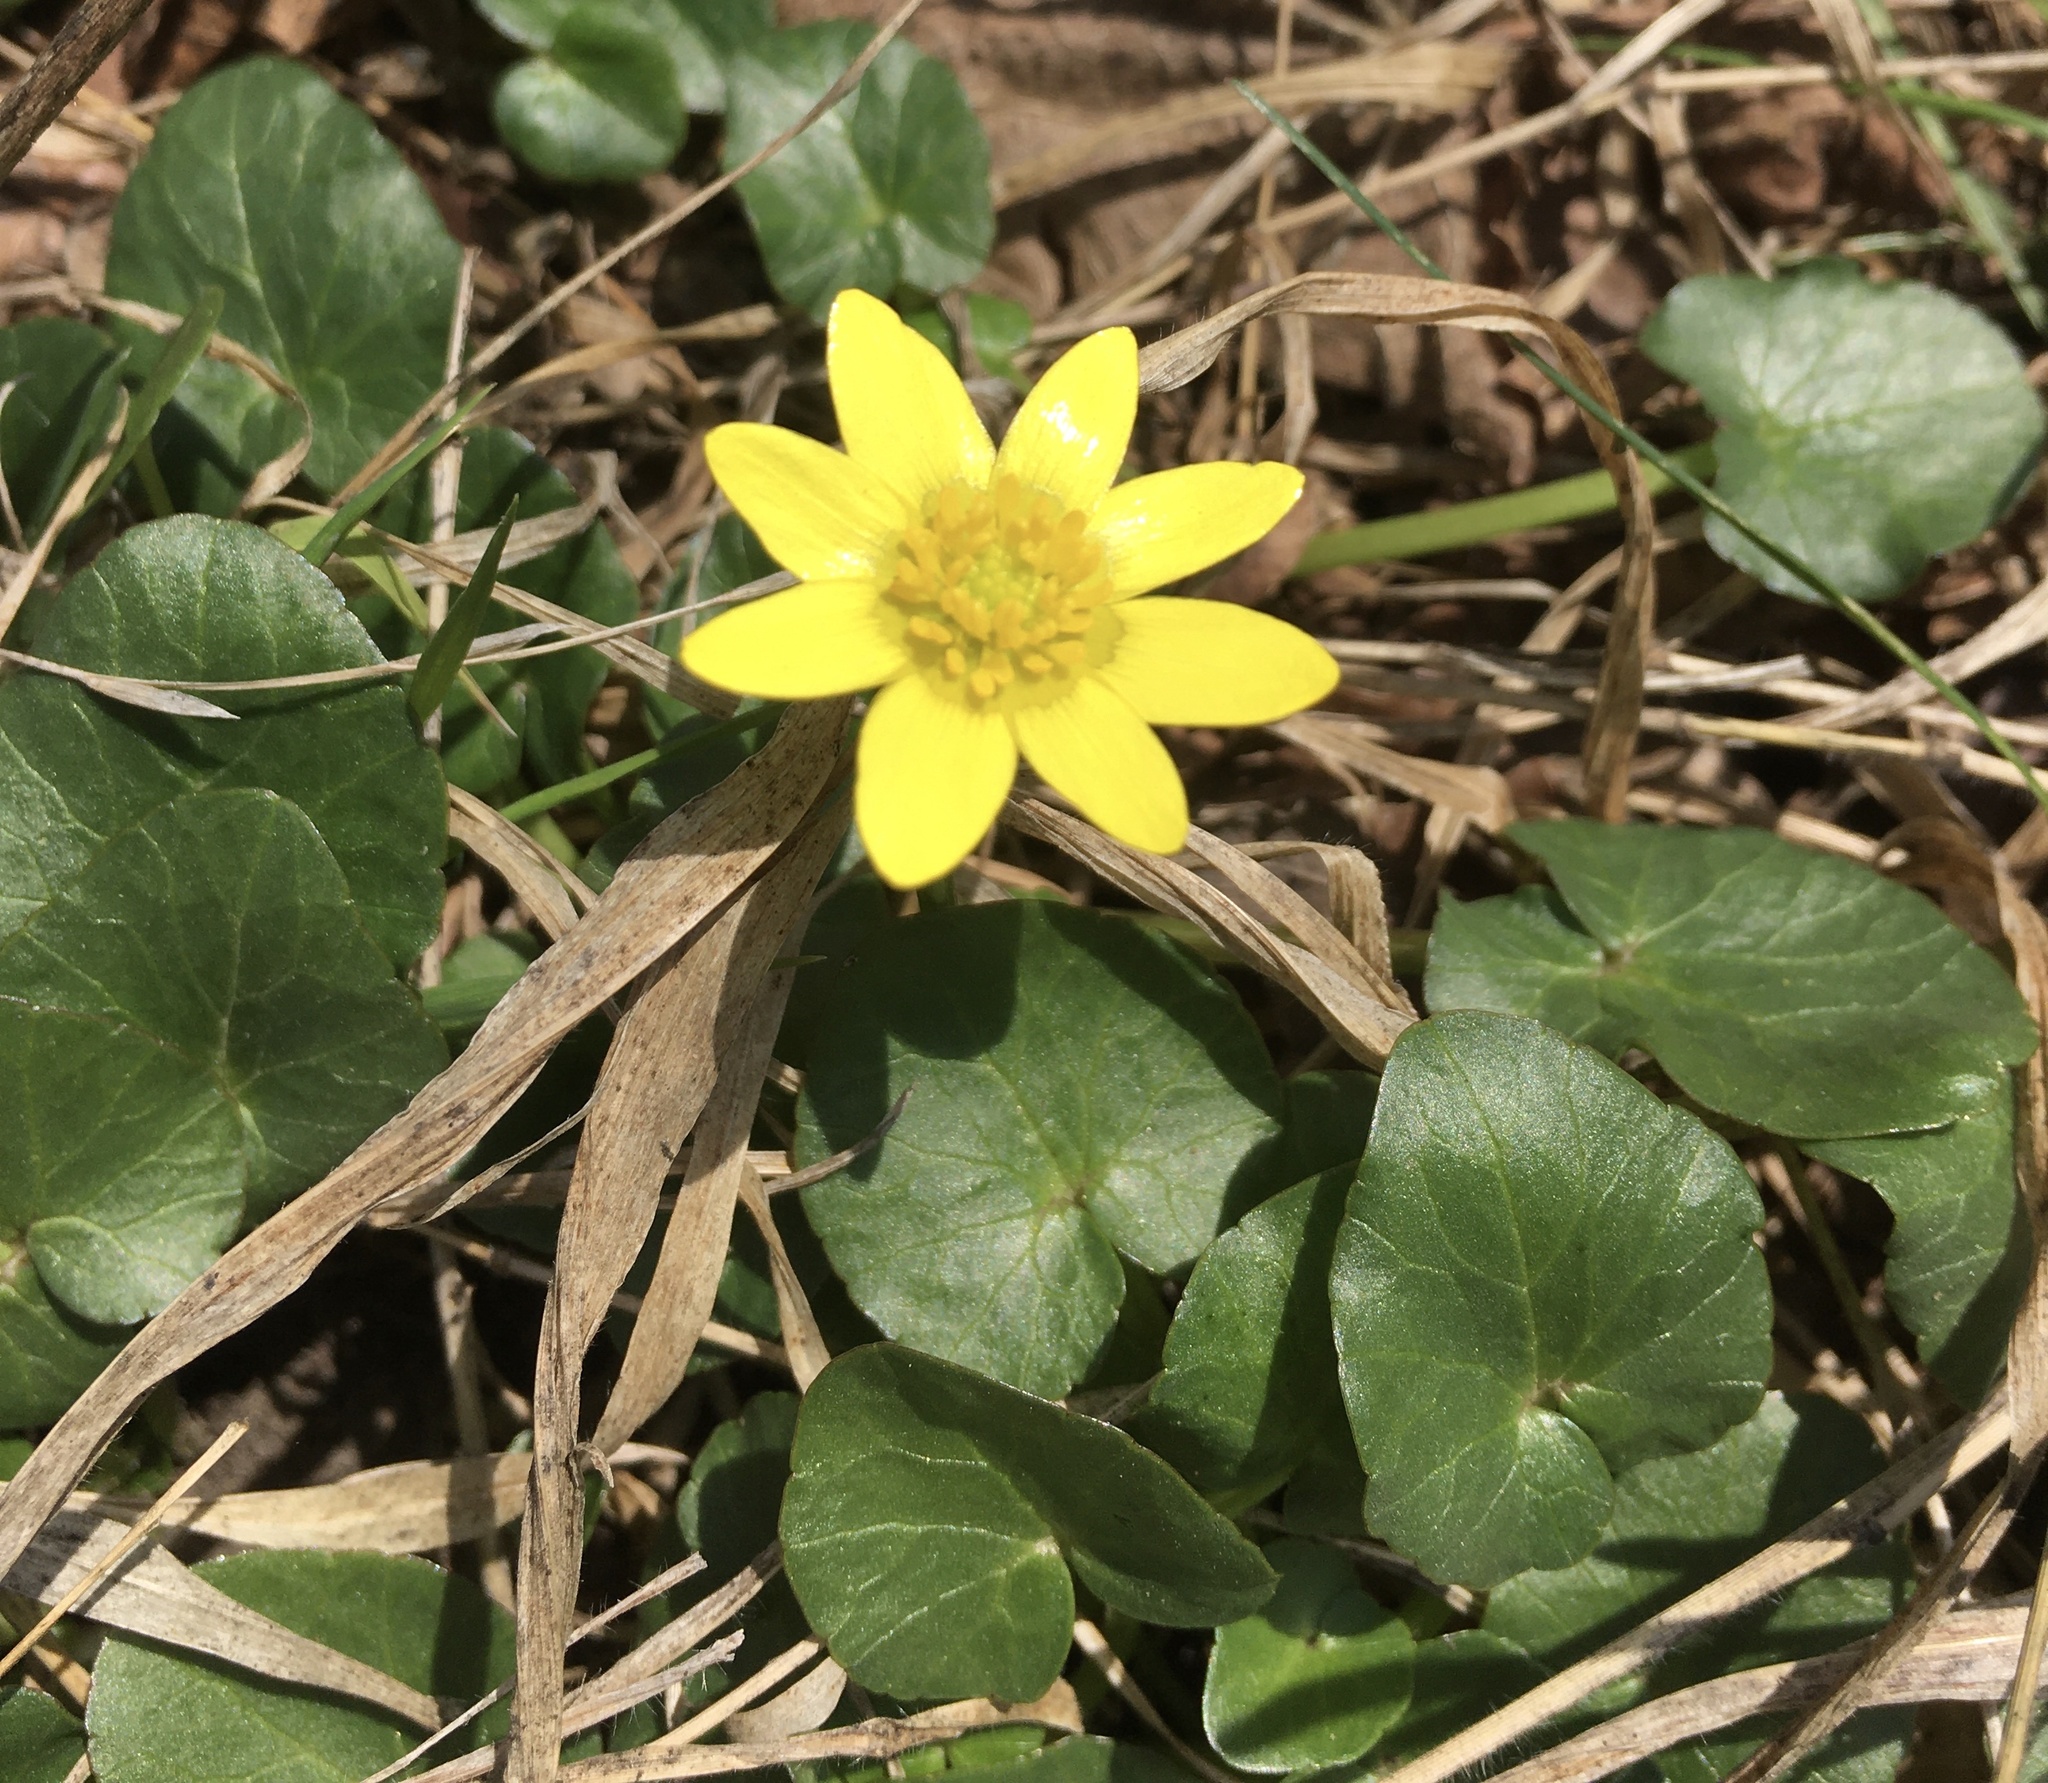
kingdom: Plantae
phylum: Tracheophyta
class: Magnoliopsida
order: Ranunculales
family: Ranunculaceae
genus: Ficaria
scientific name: Ficaria verna
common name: Lesser celandine
